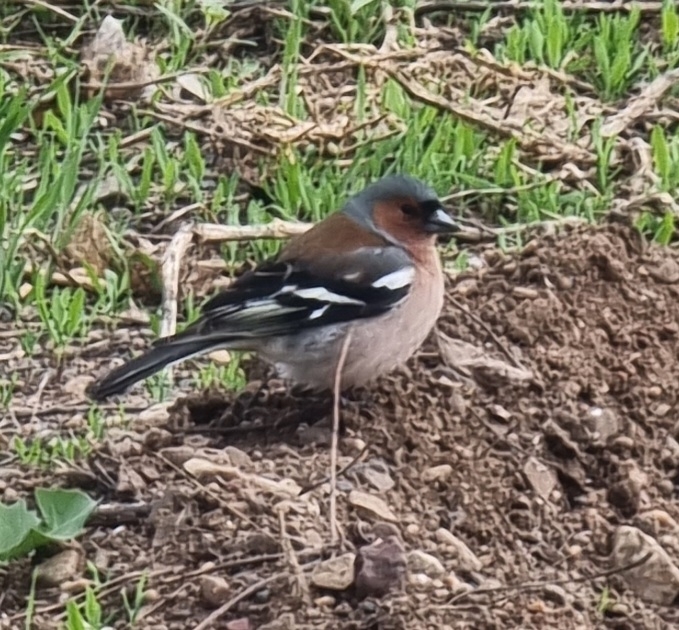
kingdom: Animalia
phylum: Chordata
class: Aves
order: Passeriformes
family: Fringillidae
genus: Fringilla
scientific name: Fringilla coelebs
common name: Common chaffinch
